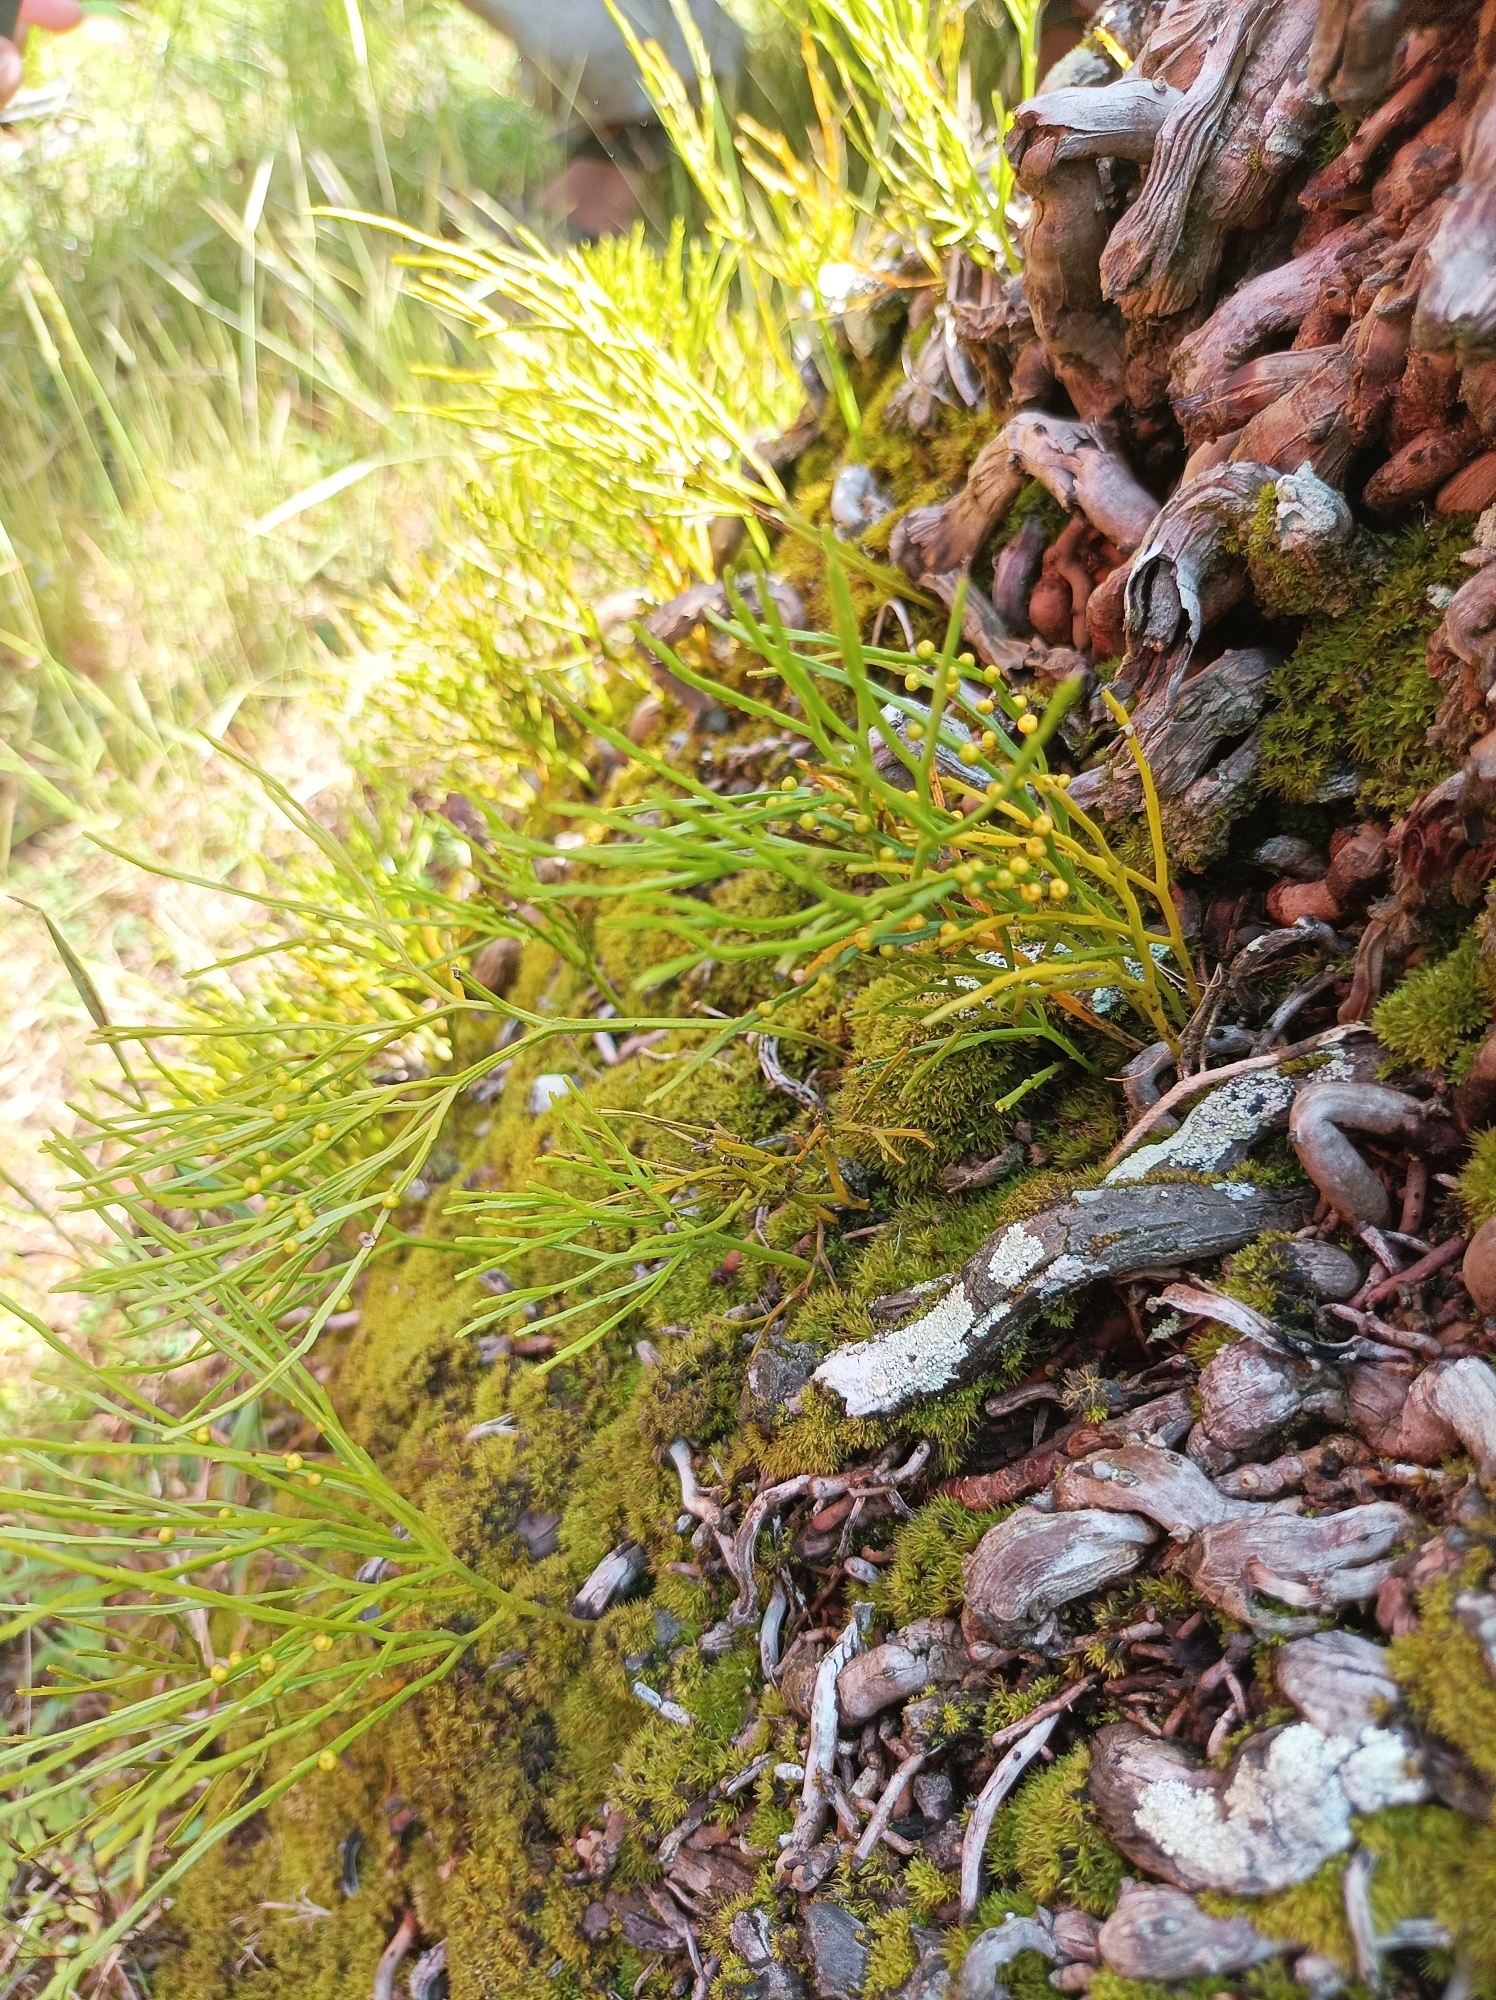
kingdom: Plantae
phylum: Tracheophyta
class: Polypodiopsida
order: Psilotales
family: Psilotaceae
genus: Psilotum
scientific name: Psilotum nudum
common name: Skeleton fork fern
